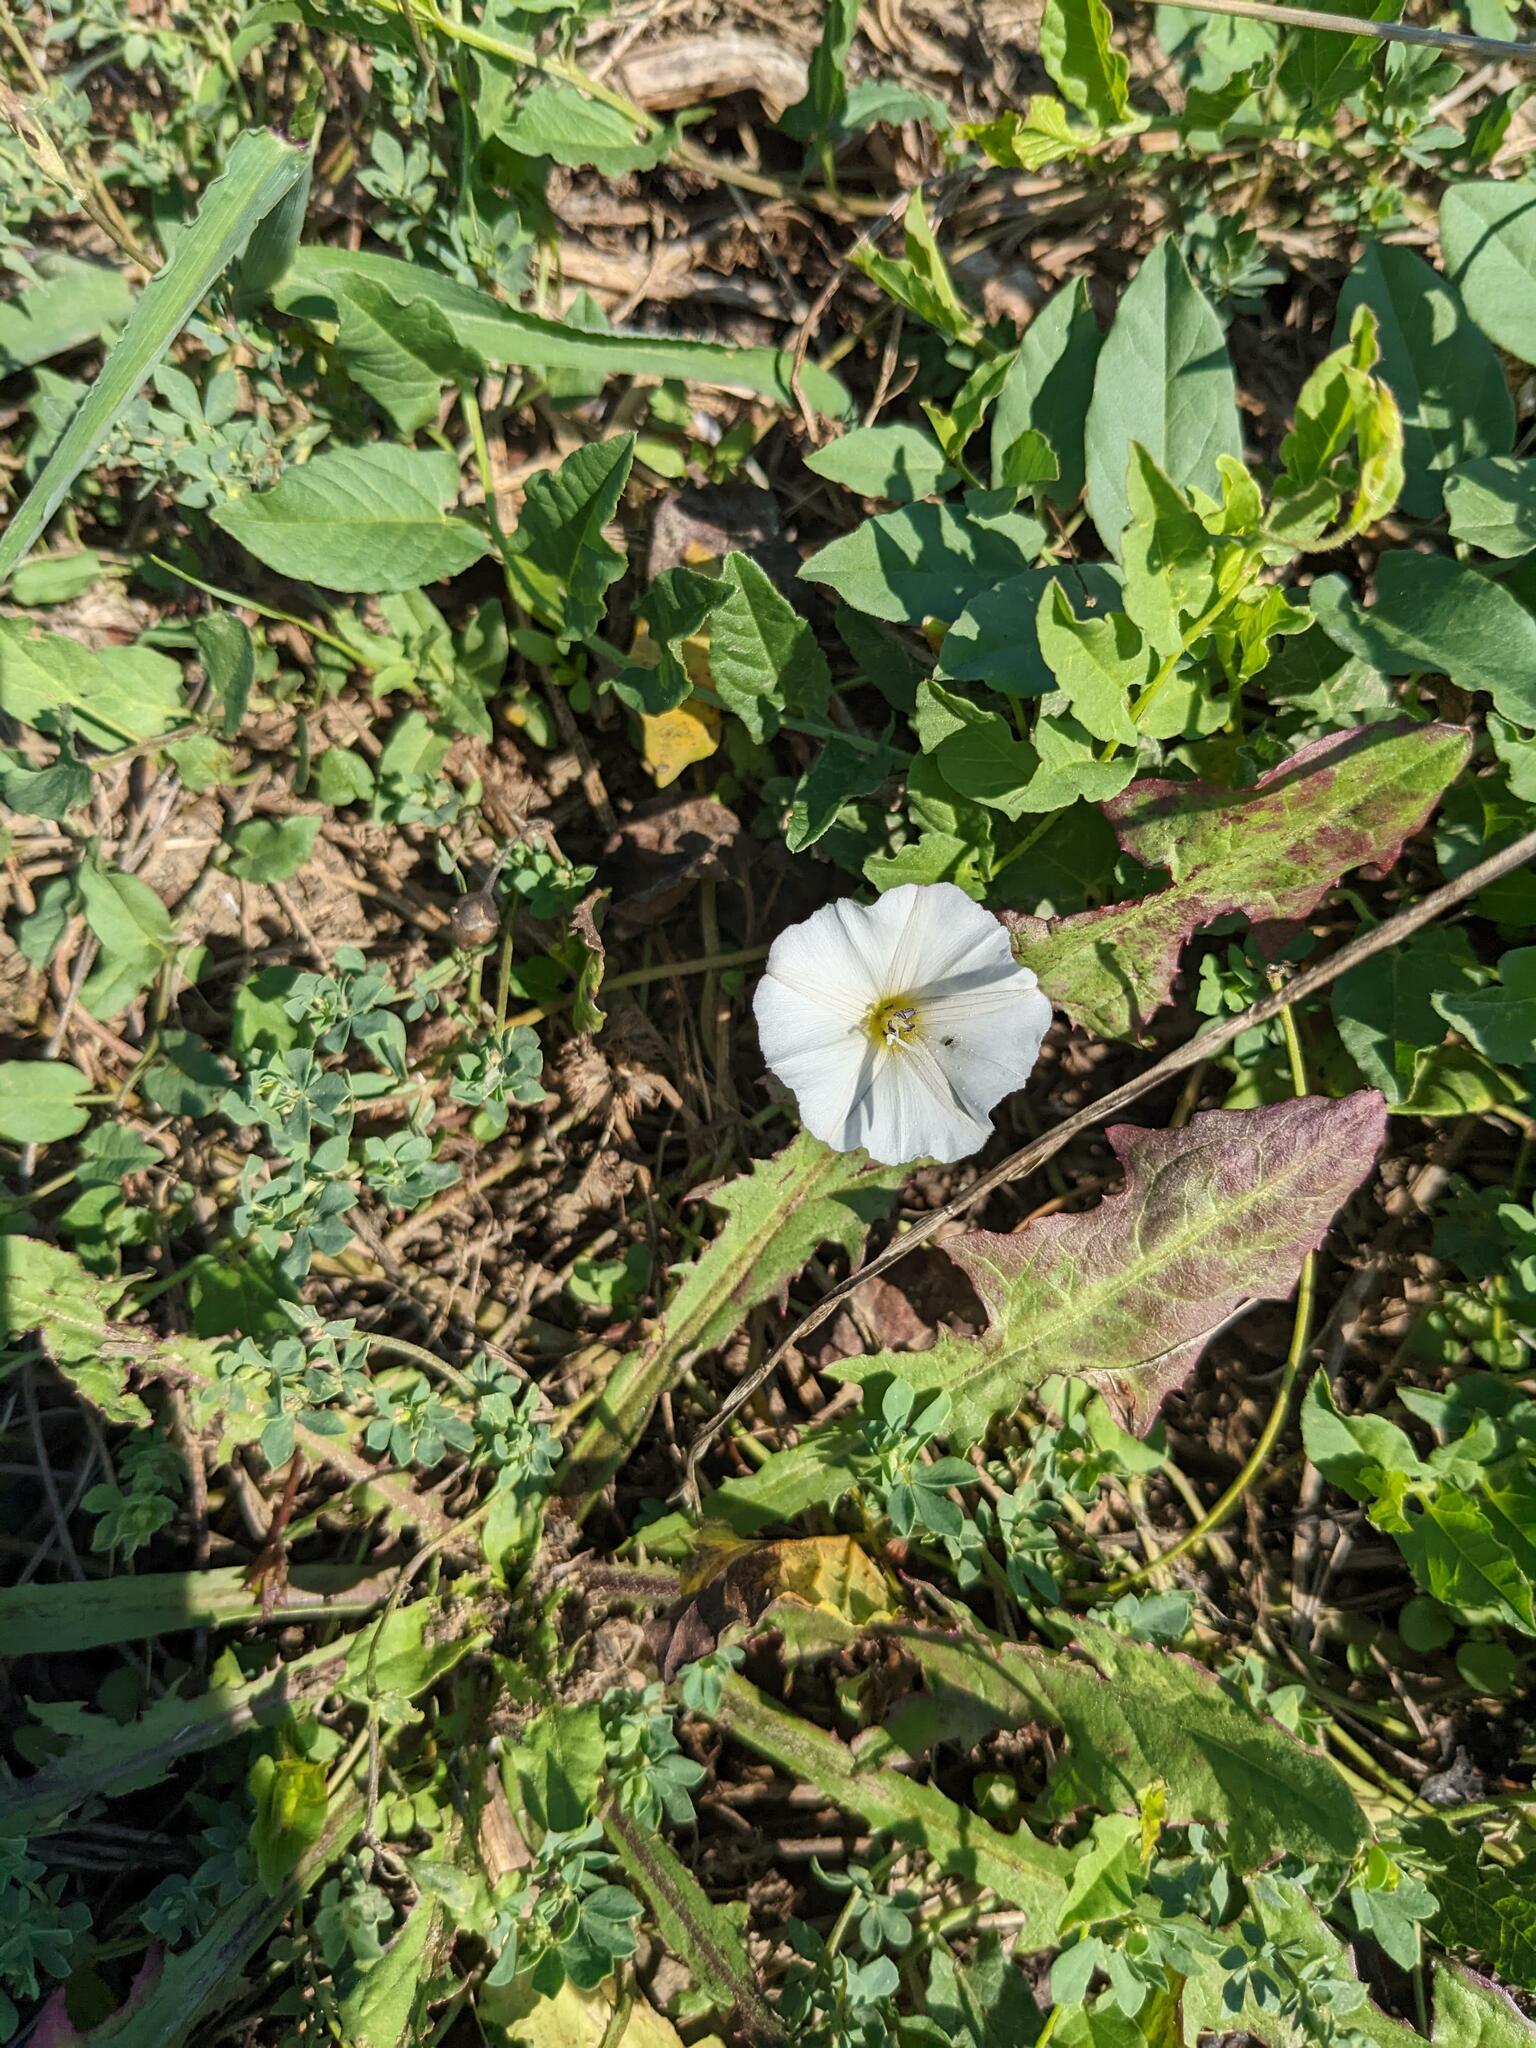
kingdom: Plantae
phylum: Tracheophyta
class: Magnoliopsida
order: Solanales
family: Convolvulaceae
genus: Calystegia
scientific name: Calystegia sepium
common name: Hedge bindweed
